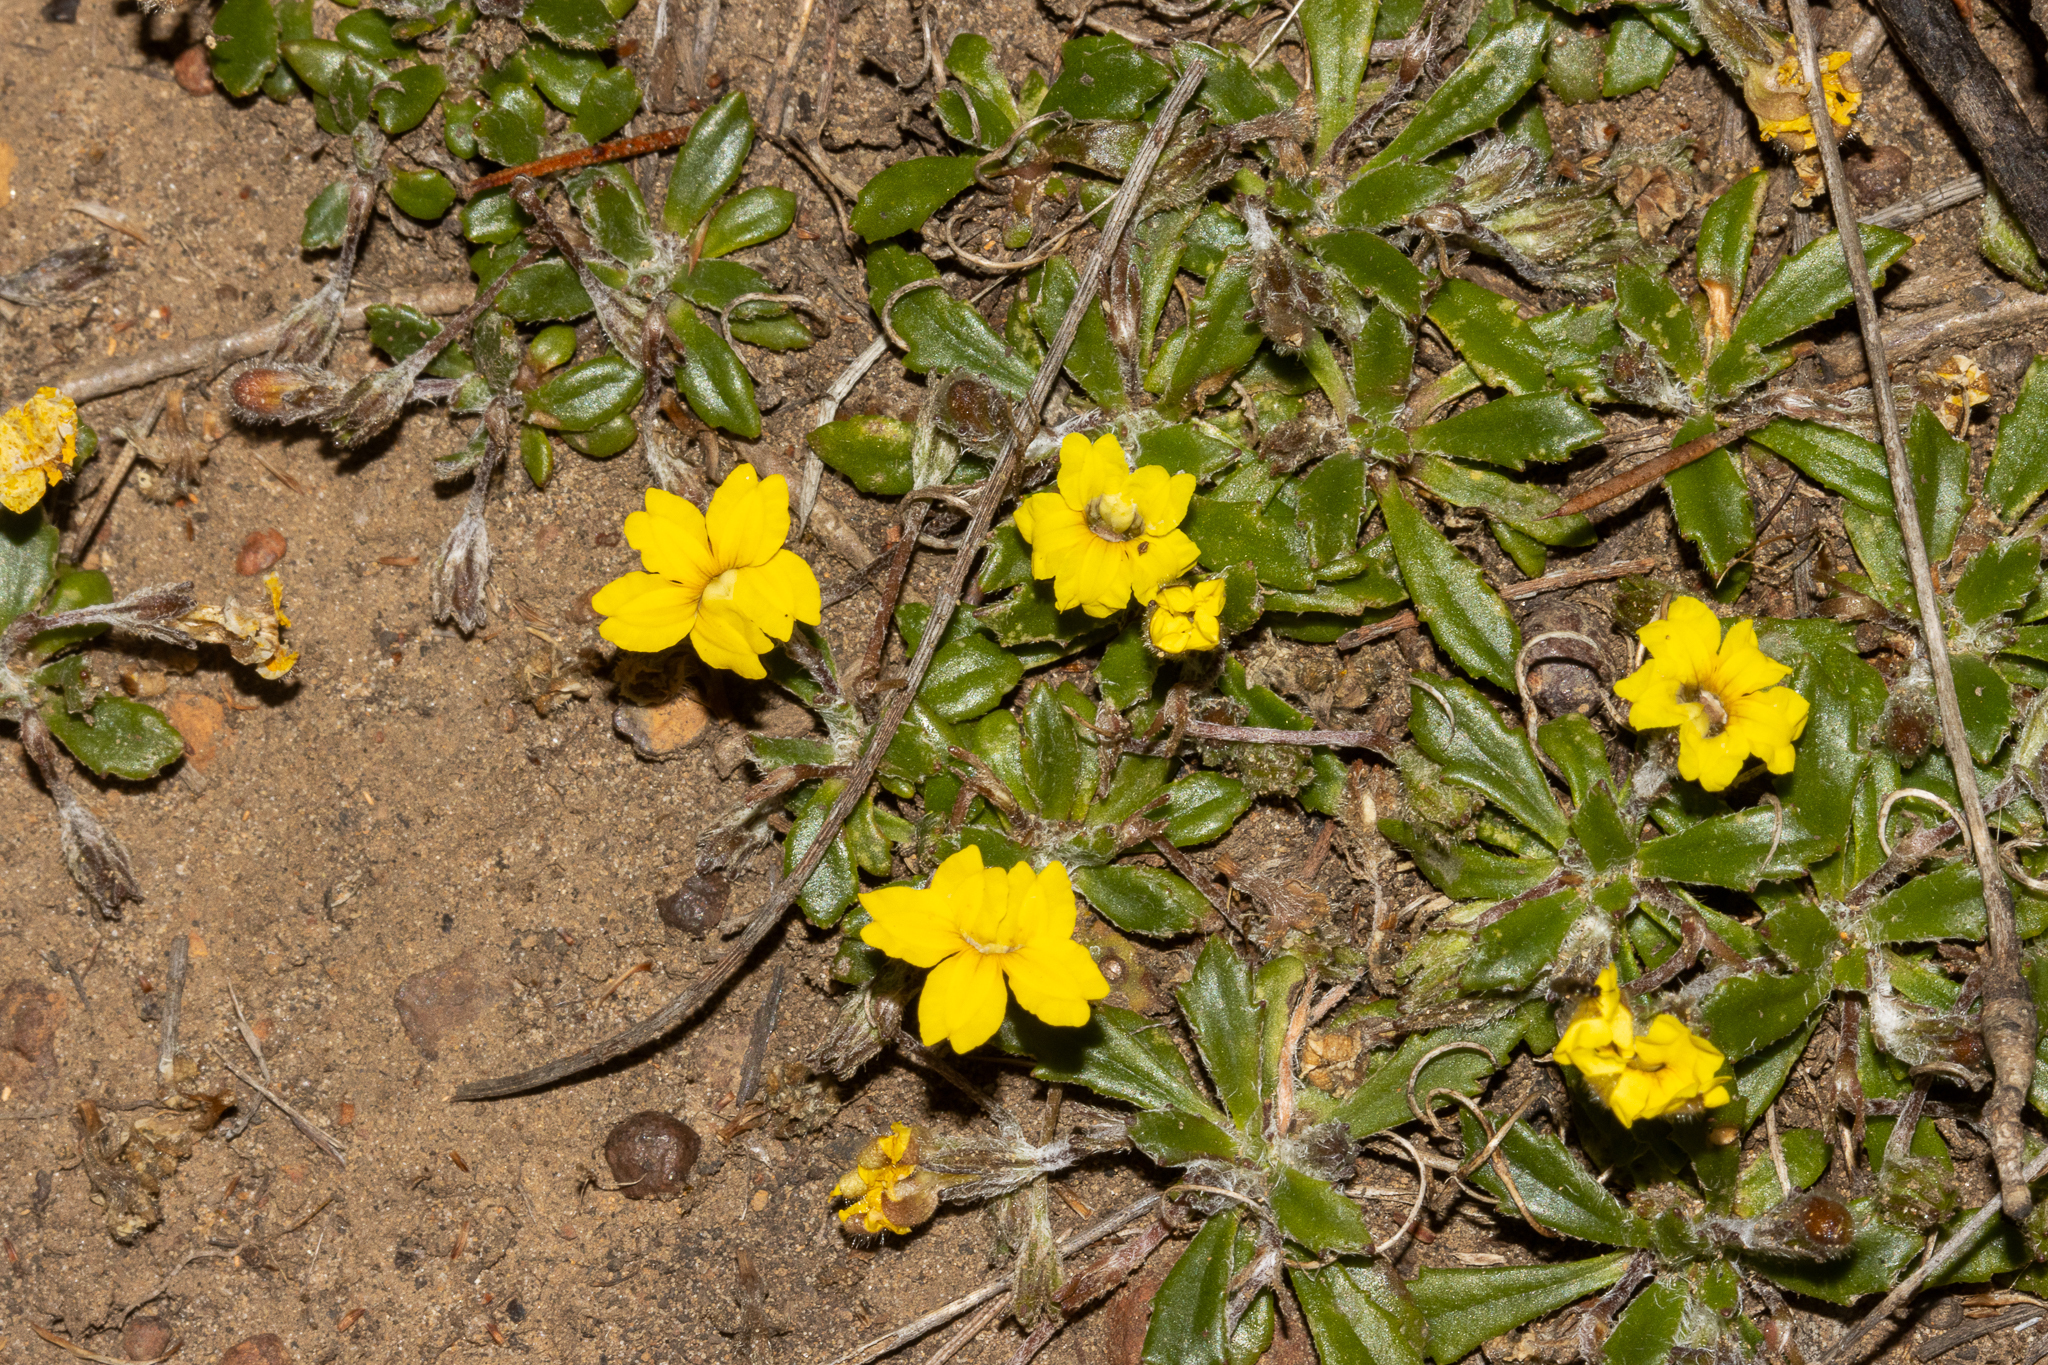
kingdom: Plantae
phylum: Tracheophyta
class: Magnoliopsida
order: Asterales
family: Goodeniaceae
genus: Goodenia
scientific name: Goodenia blackiana
